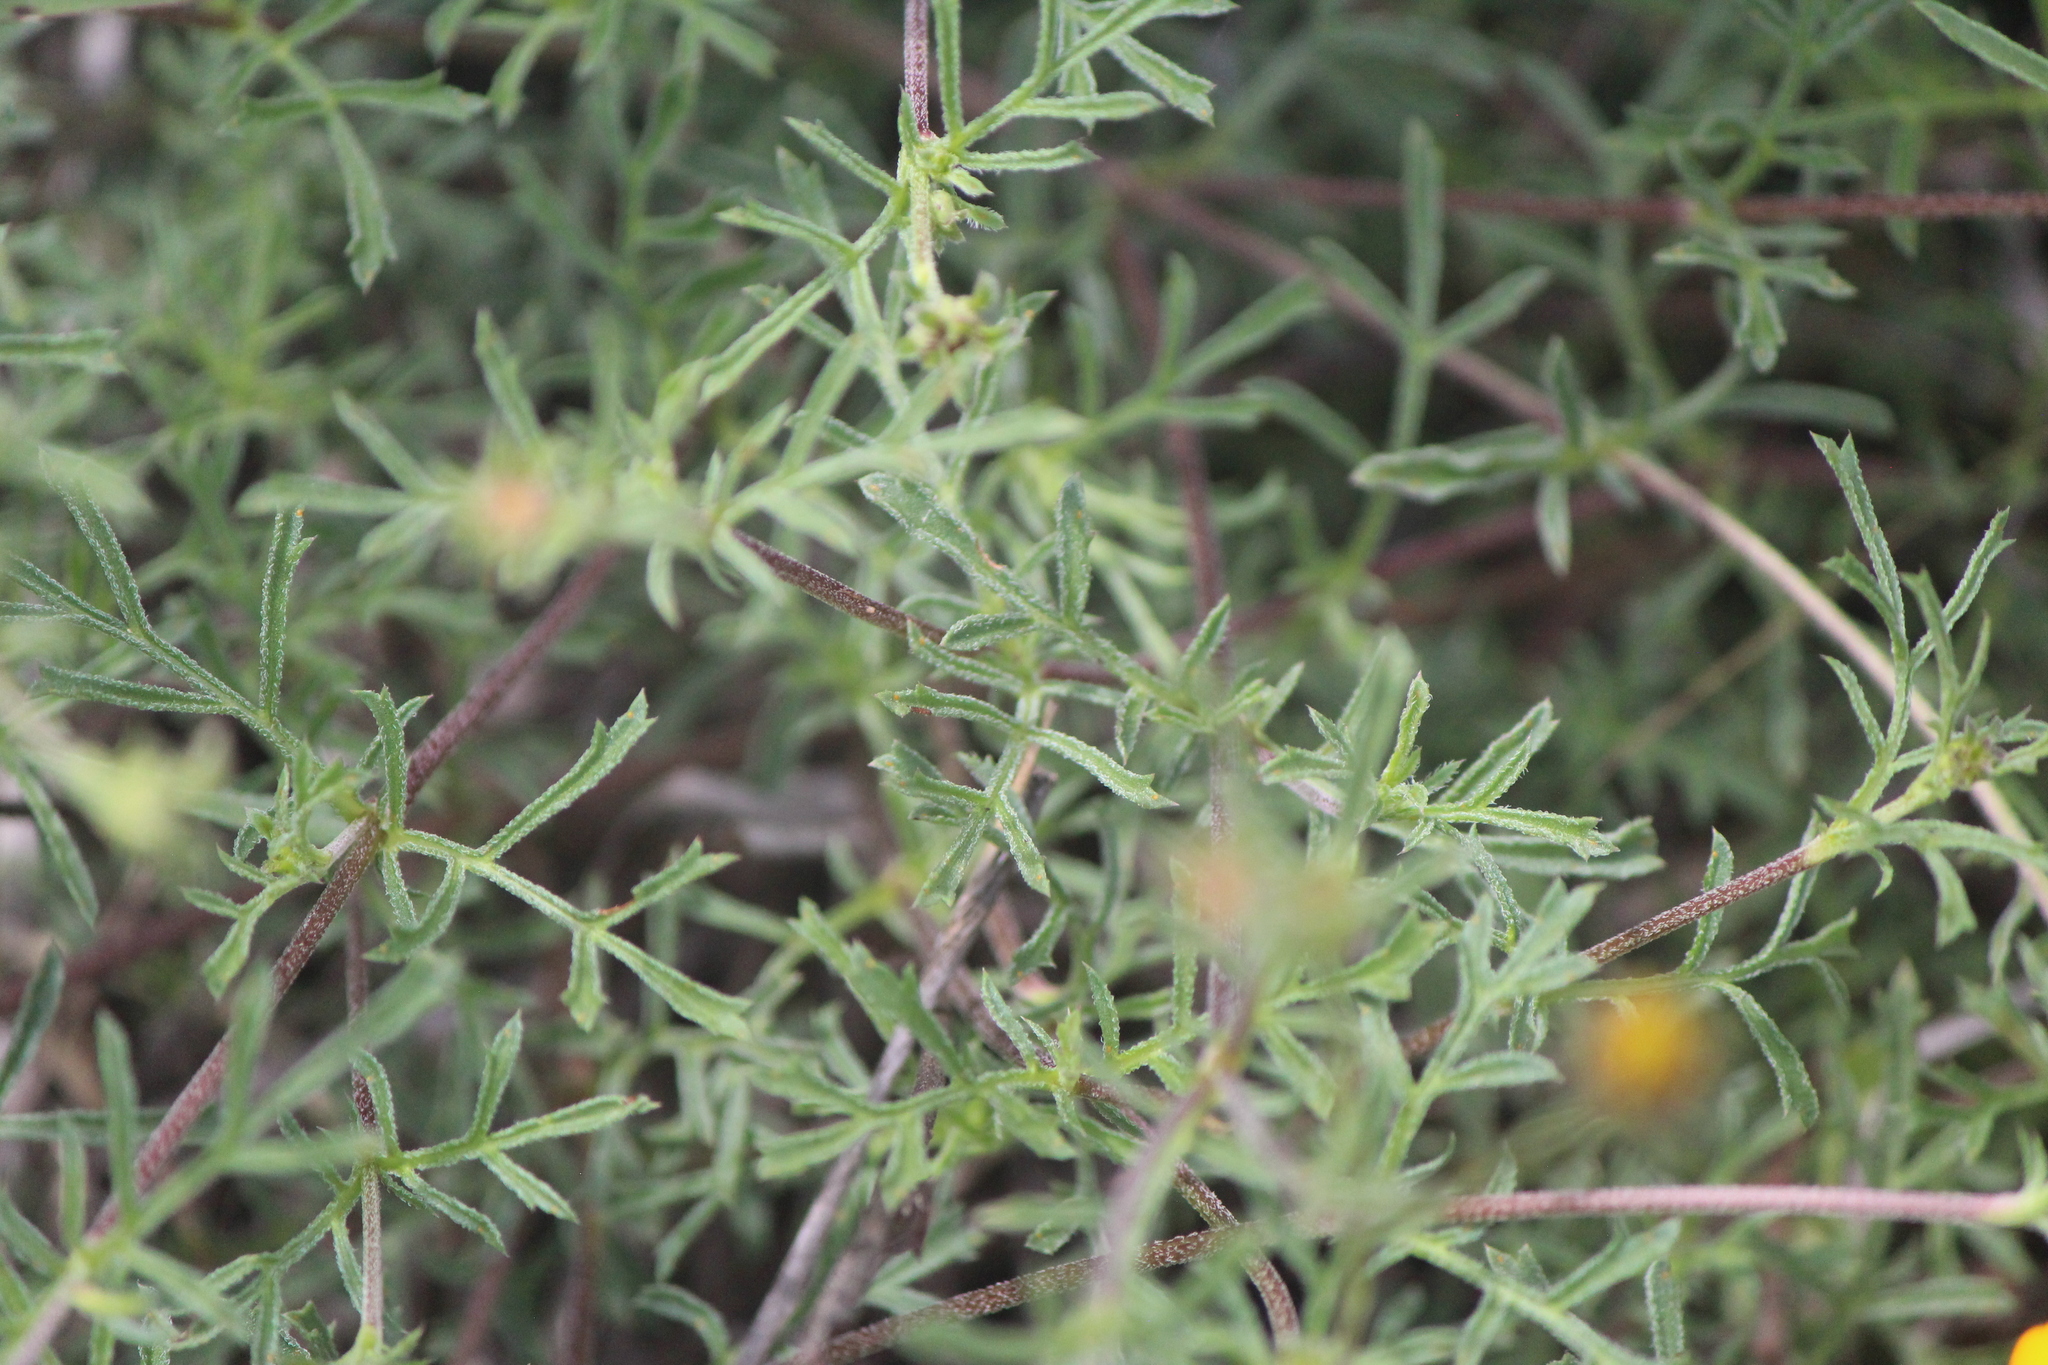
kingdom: Plantae
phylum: Tracheophyta
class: Magnoliopsida
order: Asterales
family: Asteraceae
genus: Dyssodia
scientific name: Dyssodia pinnata
